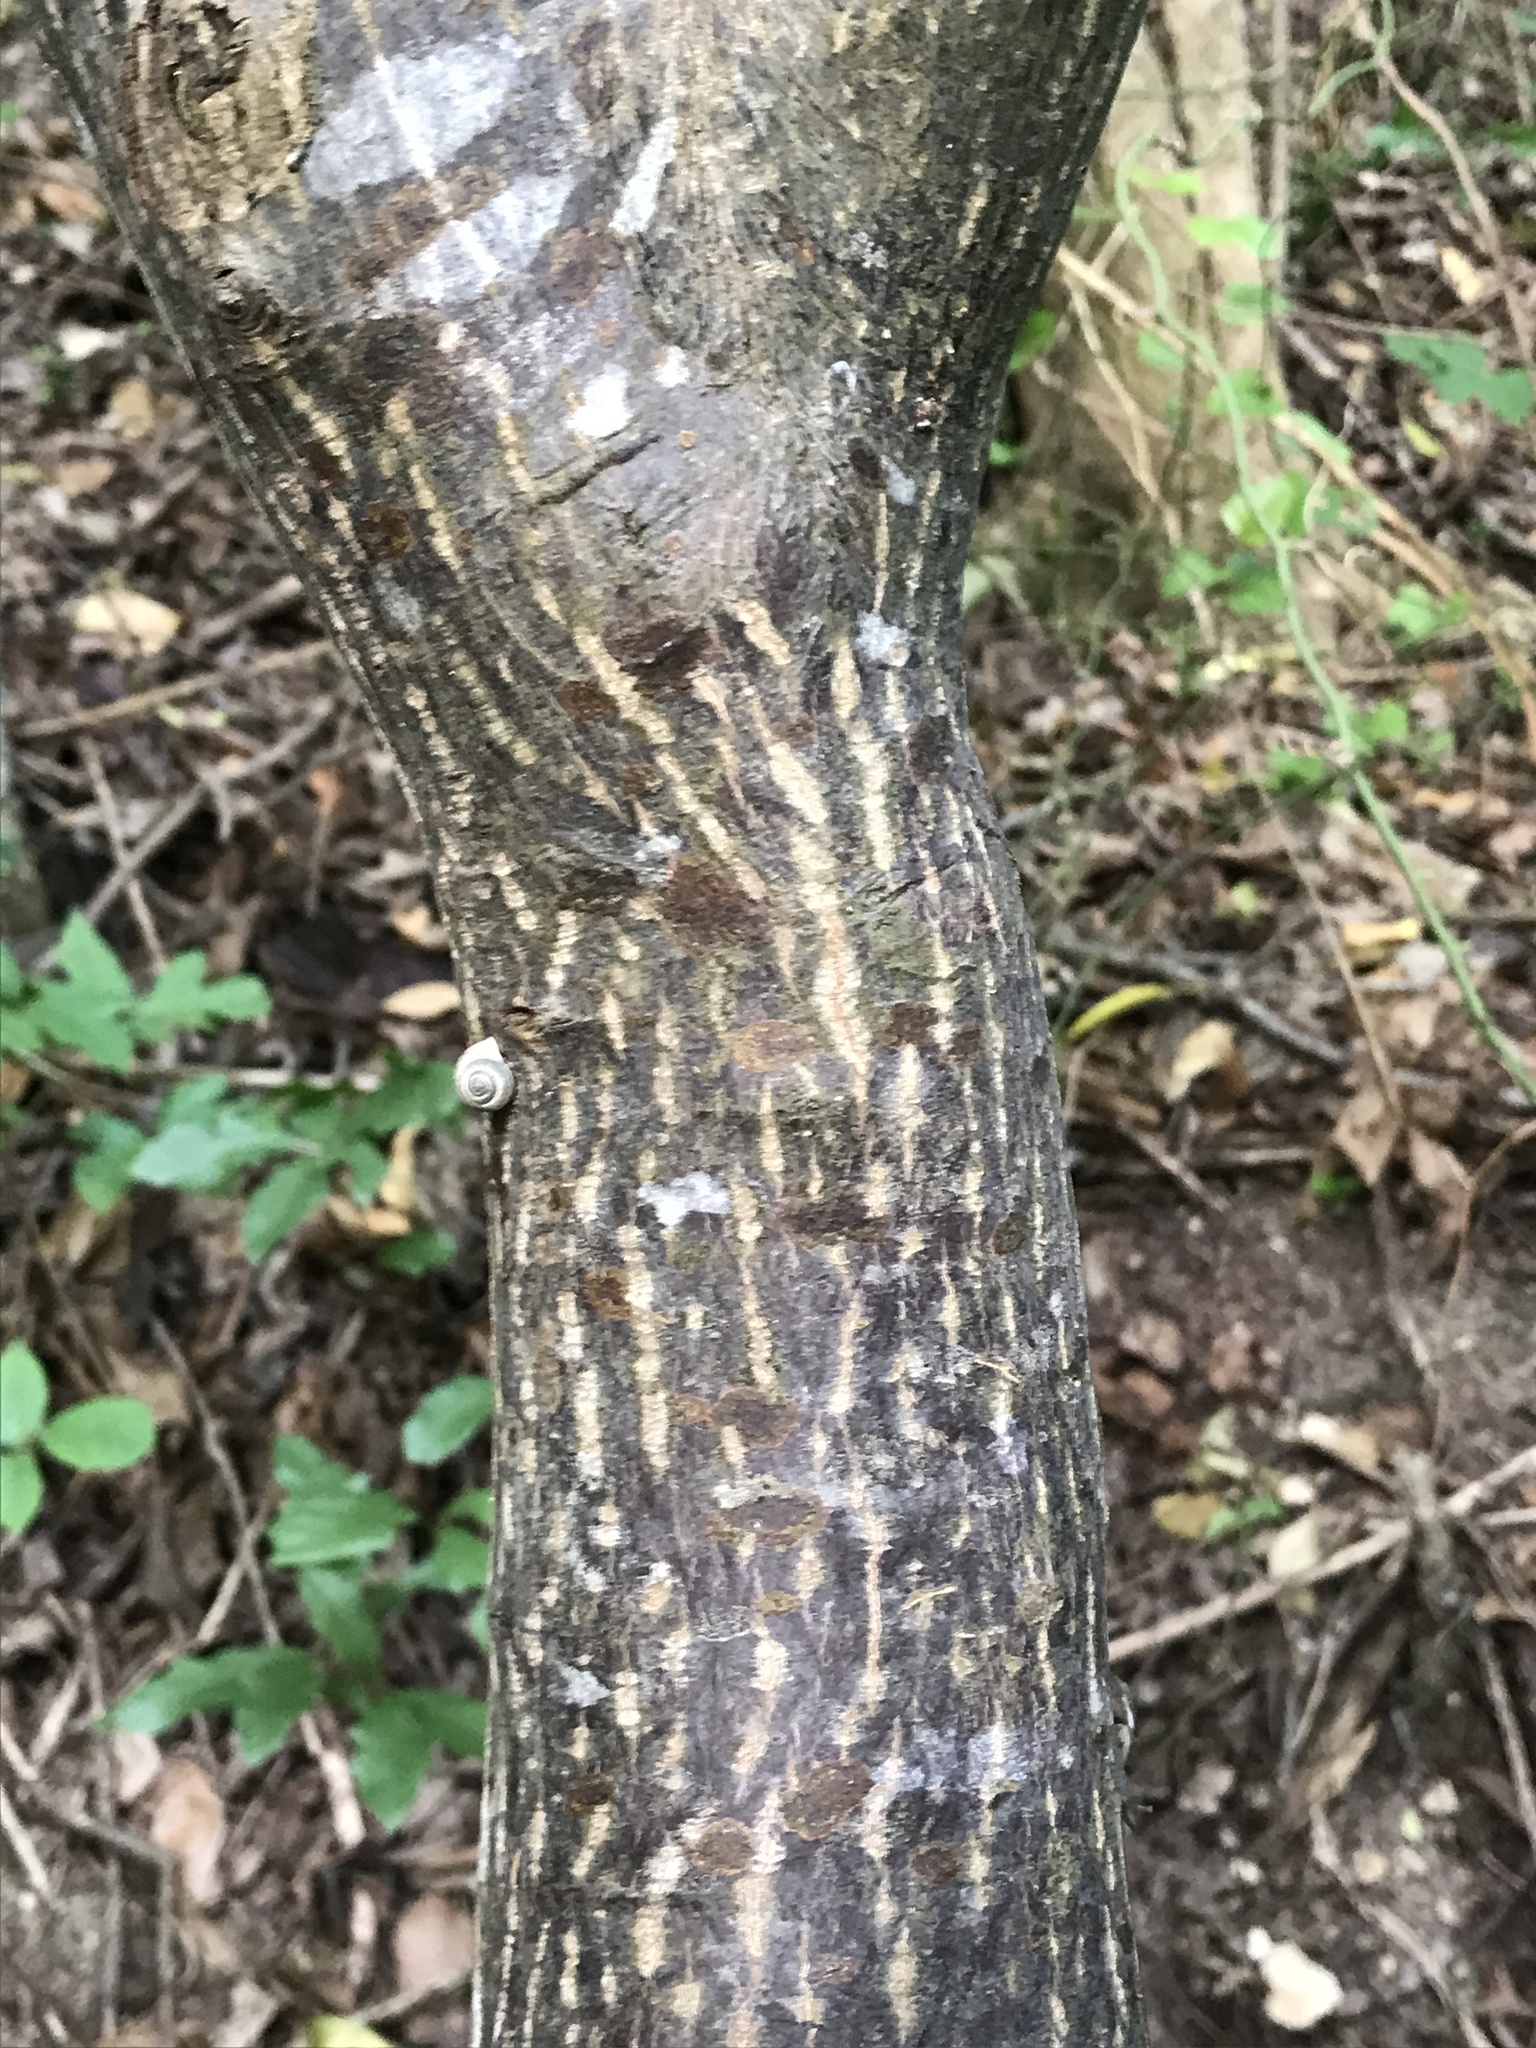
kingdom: Plantae
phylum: Tracheophyta
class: Magnoliopsida
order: Rosales
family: Rhamnaceae
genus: Frangula
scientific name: Frangula caroliniana
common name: Carolina buckthorn
